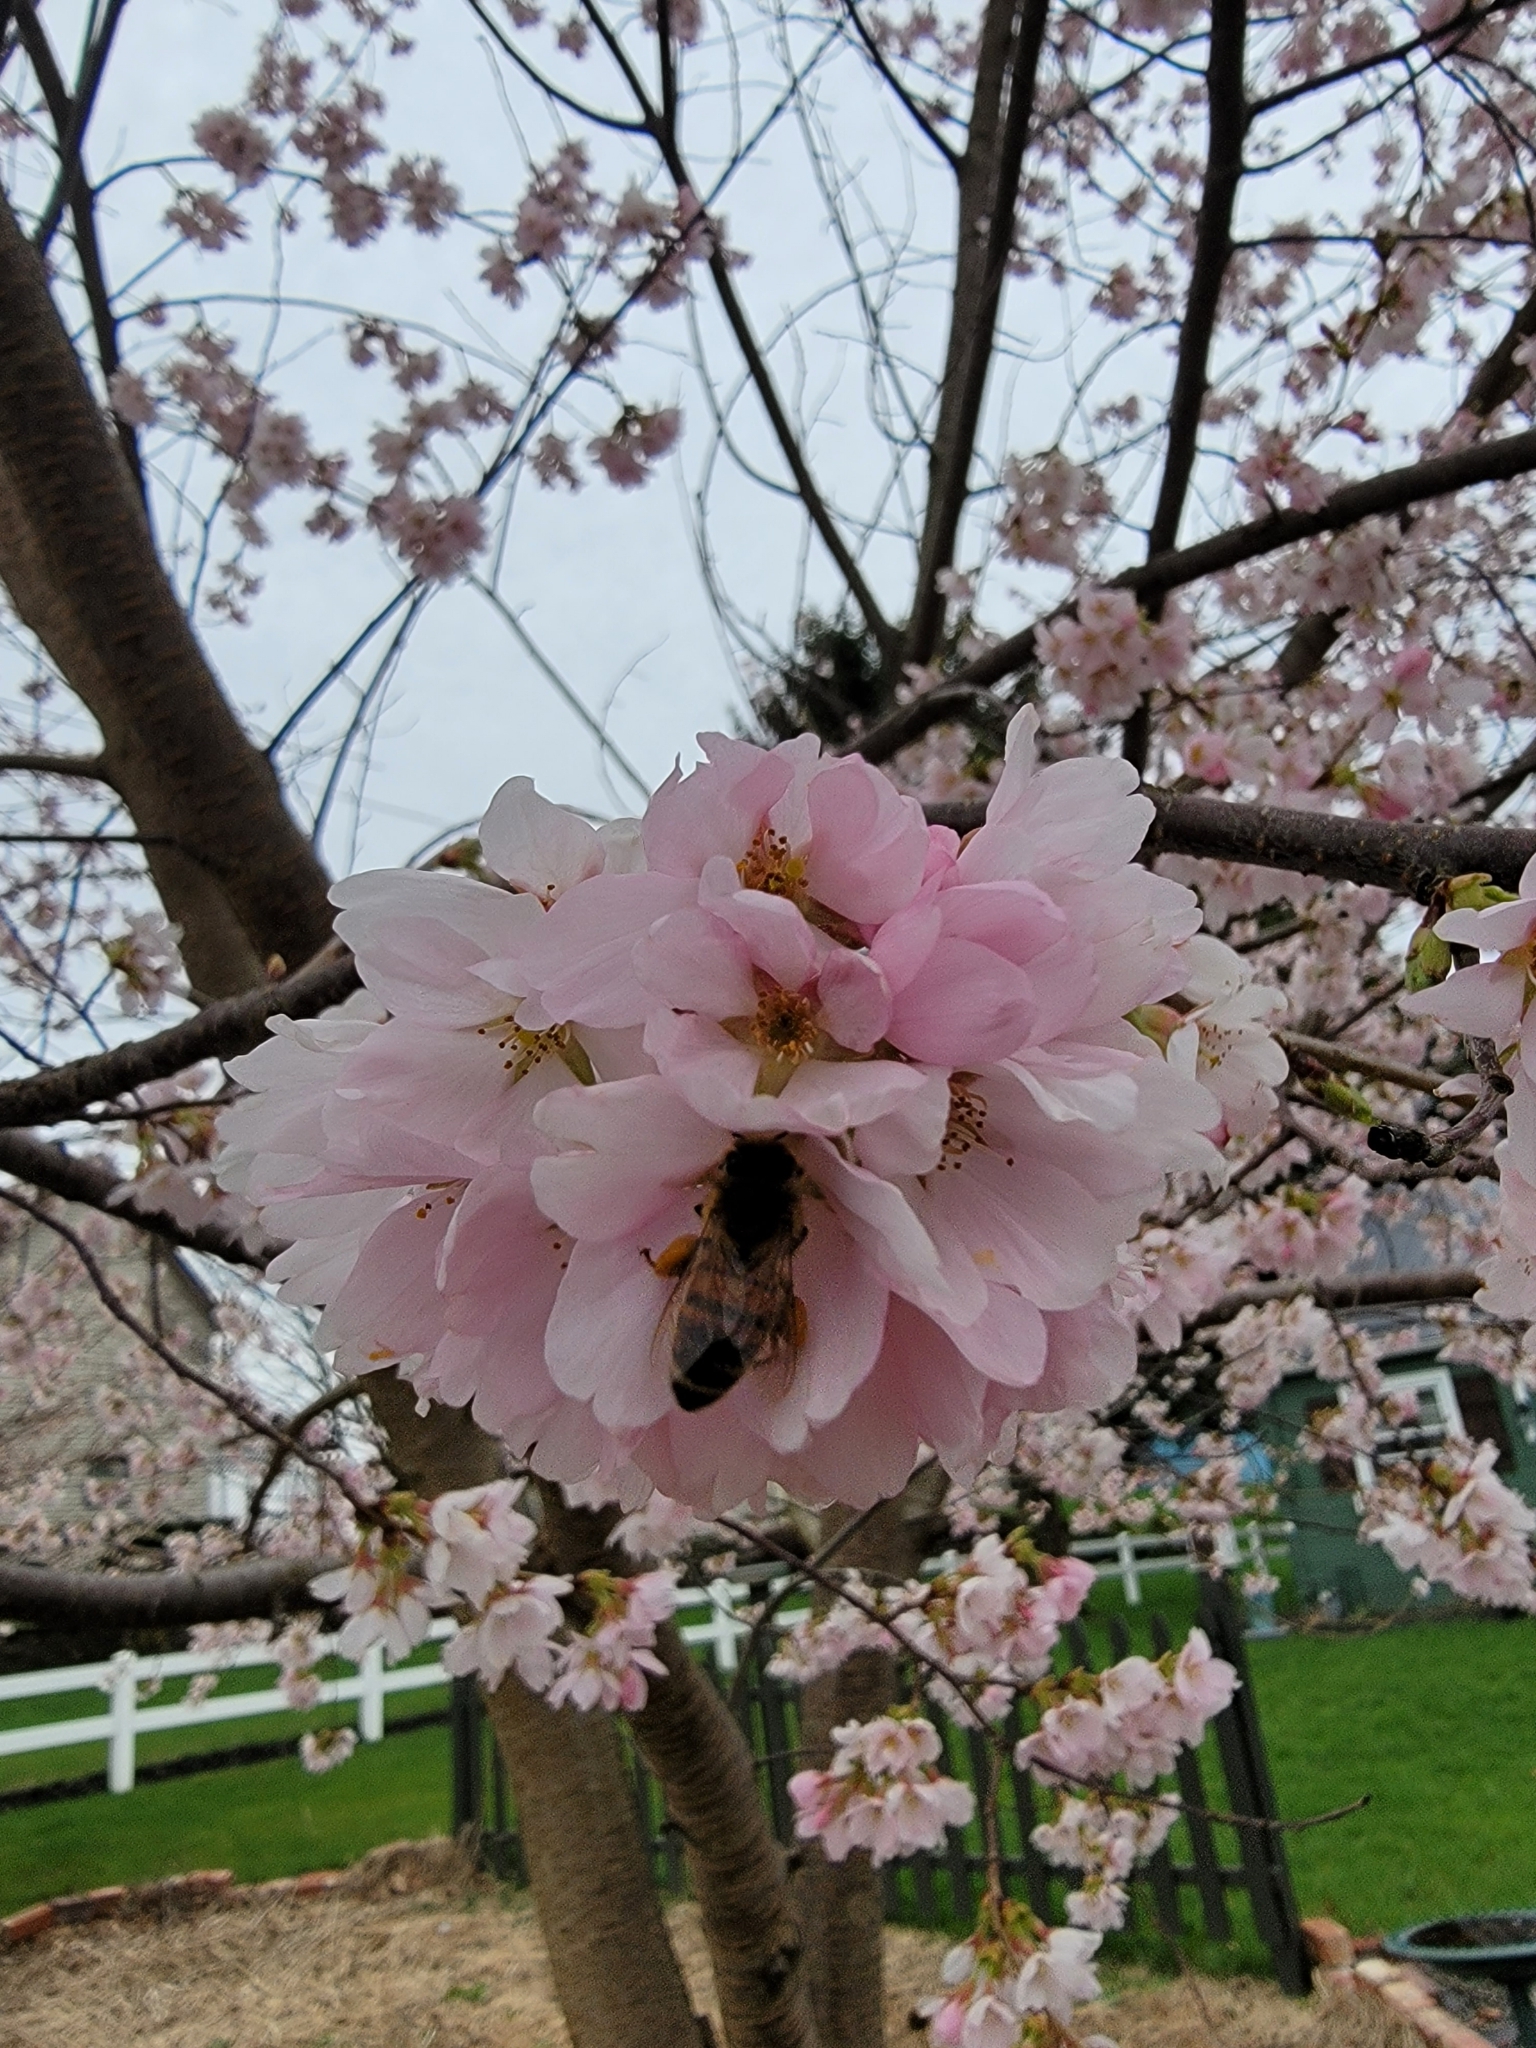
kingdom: Animalia
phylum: Arthropoda
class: Insecta
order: Hymenoptera
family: Apidae
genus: Apis
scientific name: Apis mellifera
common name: Honey bee
